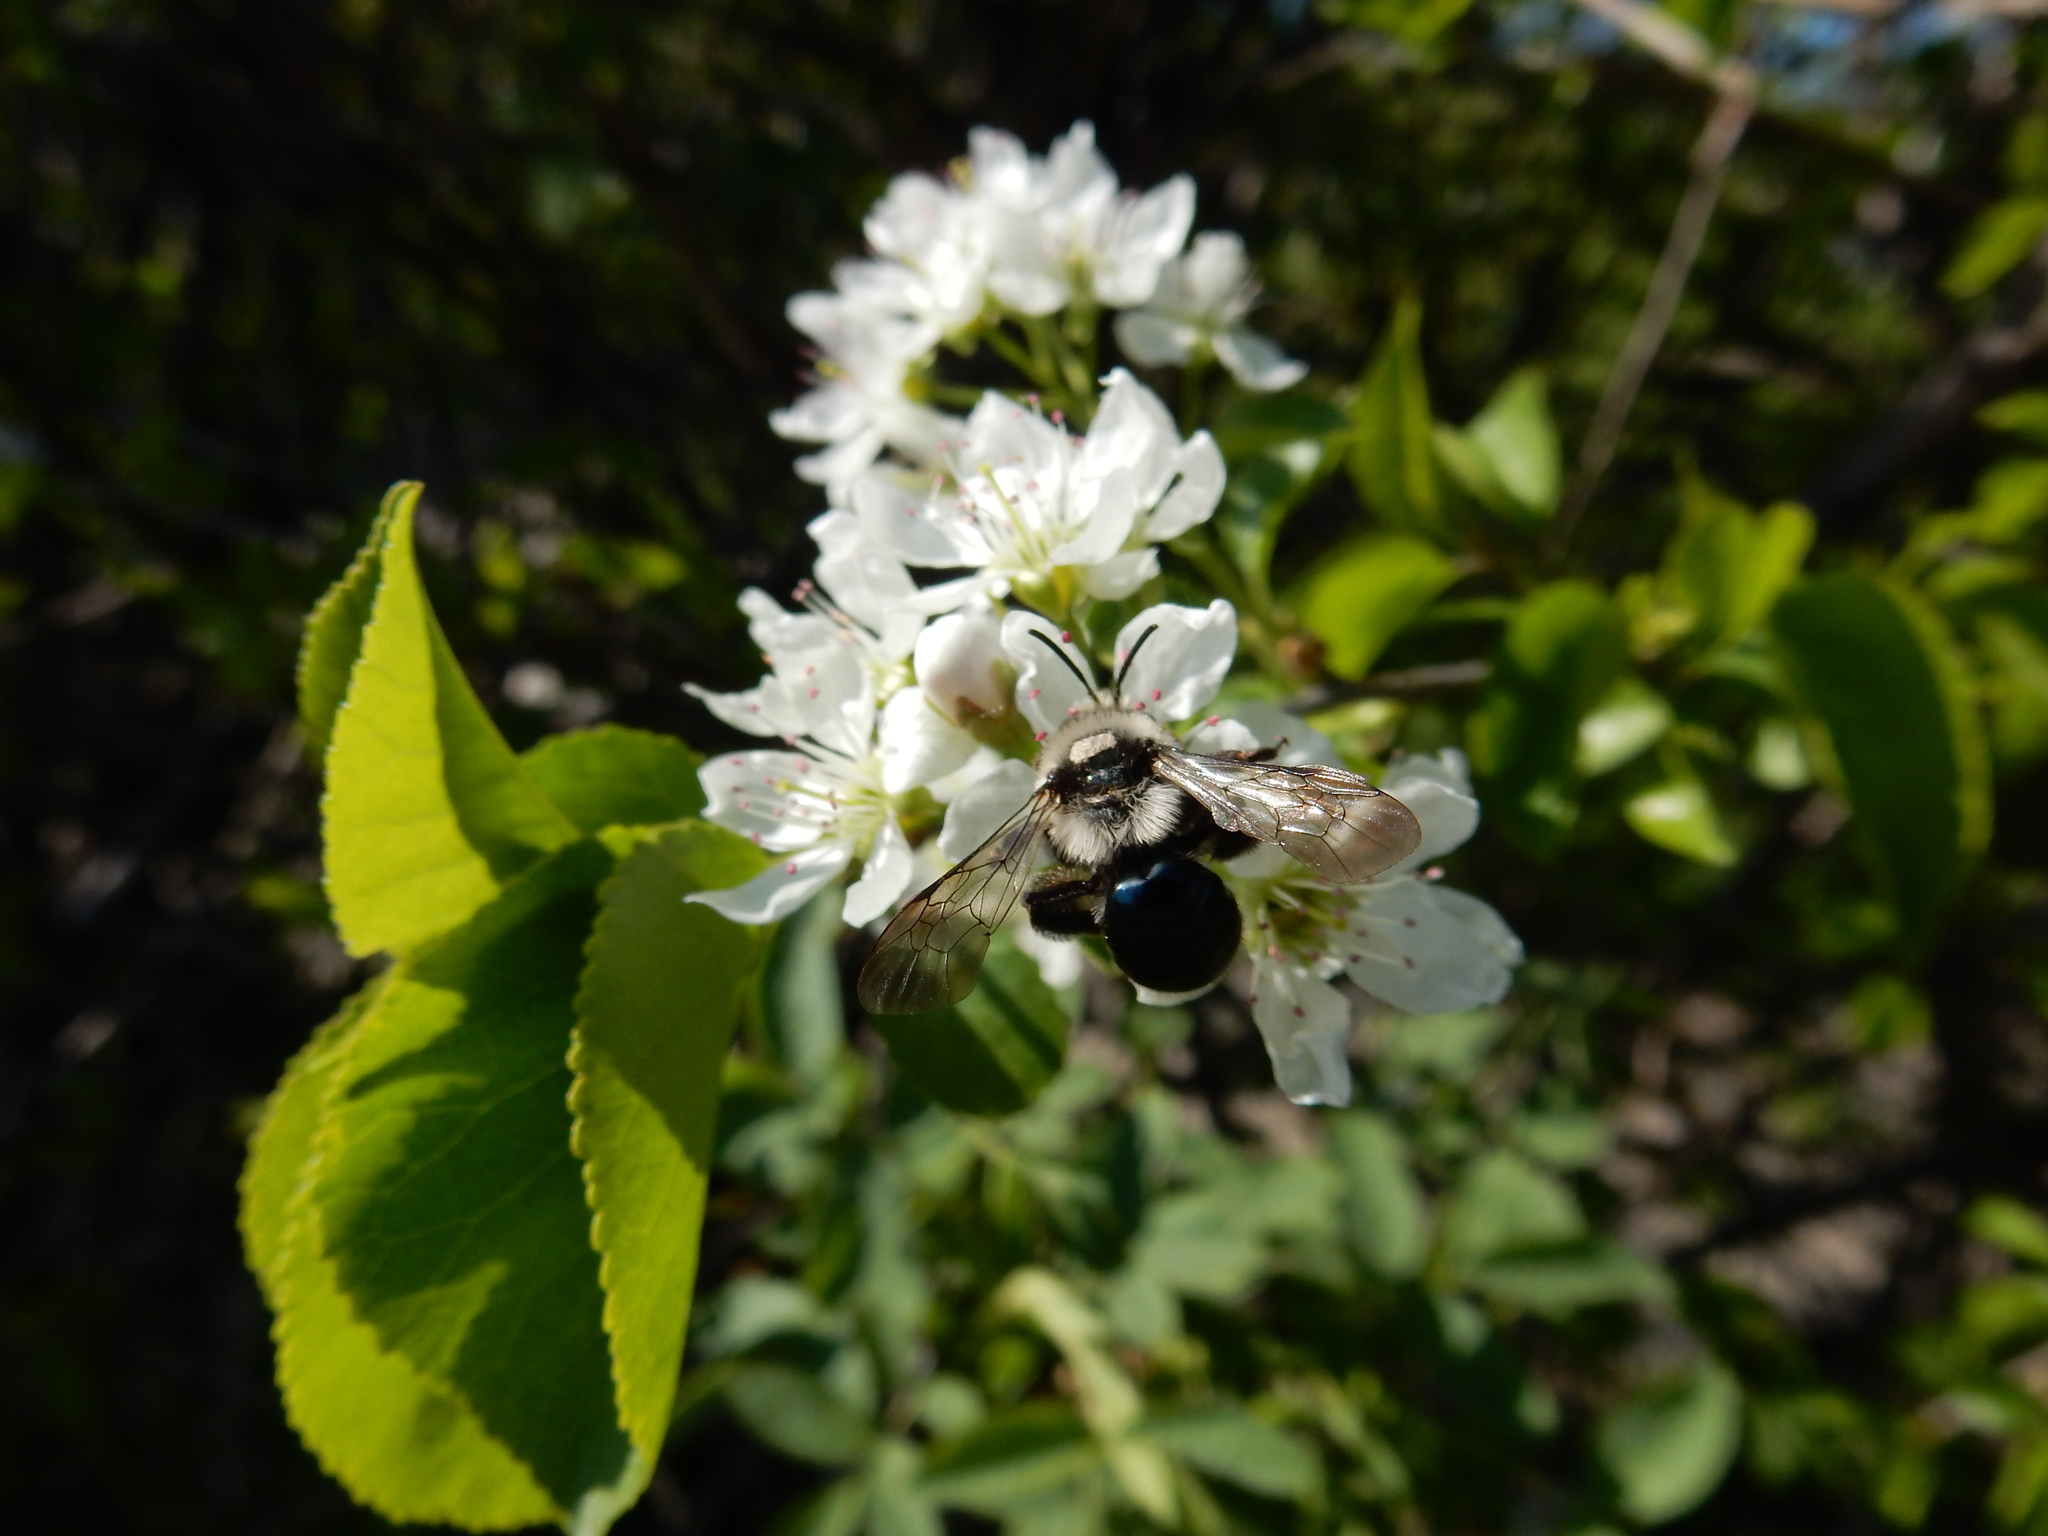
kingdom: Animalia
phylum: Arthropoda
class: Insecta
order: Hymenoptera
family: Andrenidae
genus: Andrena
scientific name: Andrena cineraria
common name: Ashy mining bee
